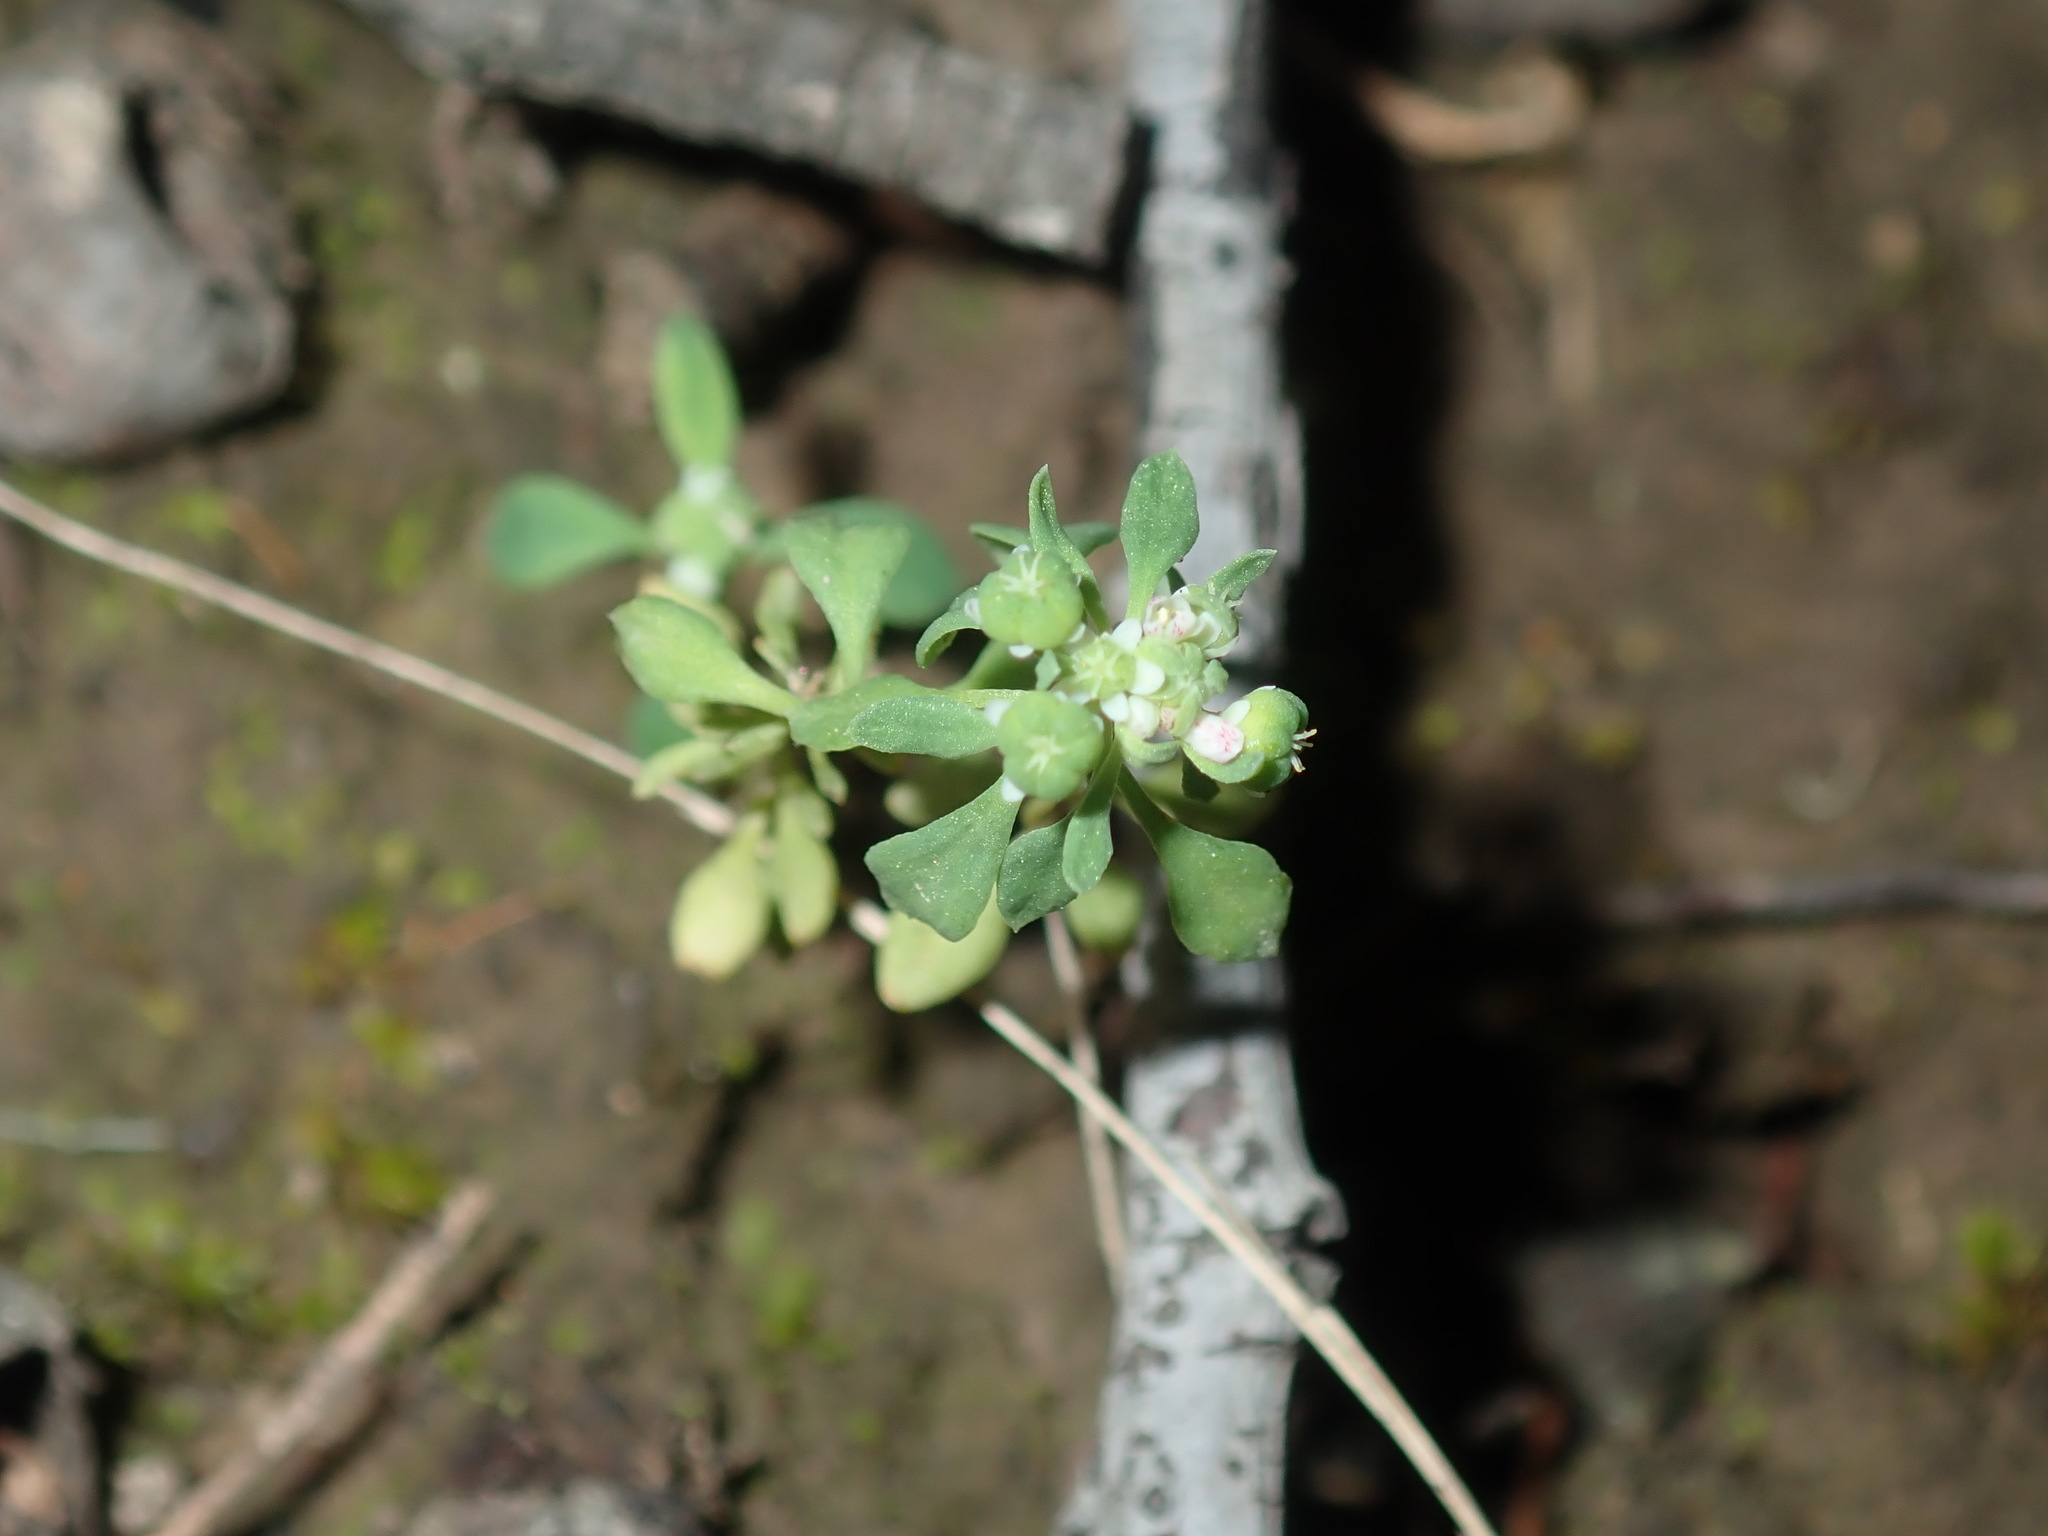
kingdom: Plantae
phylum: Tracheophyta
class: Magnoliopsida
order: Malpighiales
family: Phyllanthaceae
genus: Poranthera
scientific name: Poranthera microphylla
